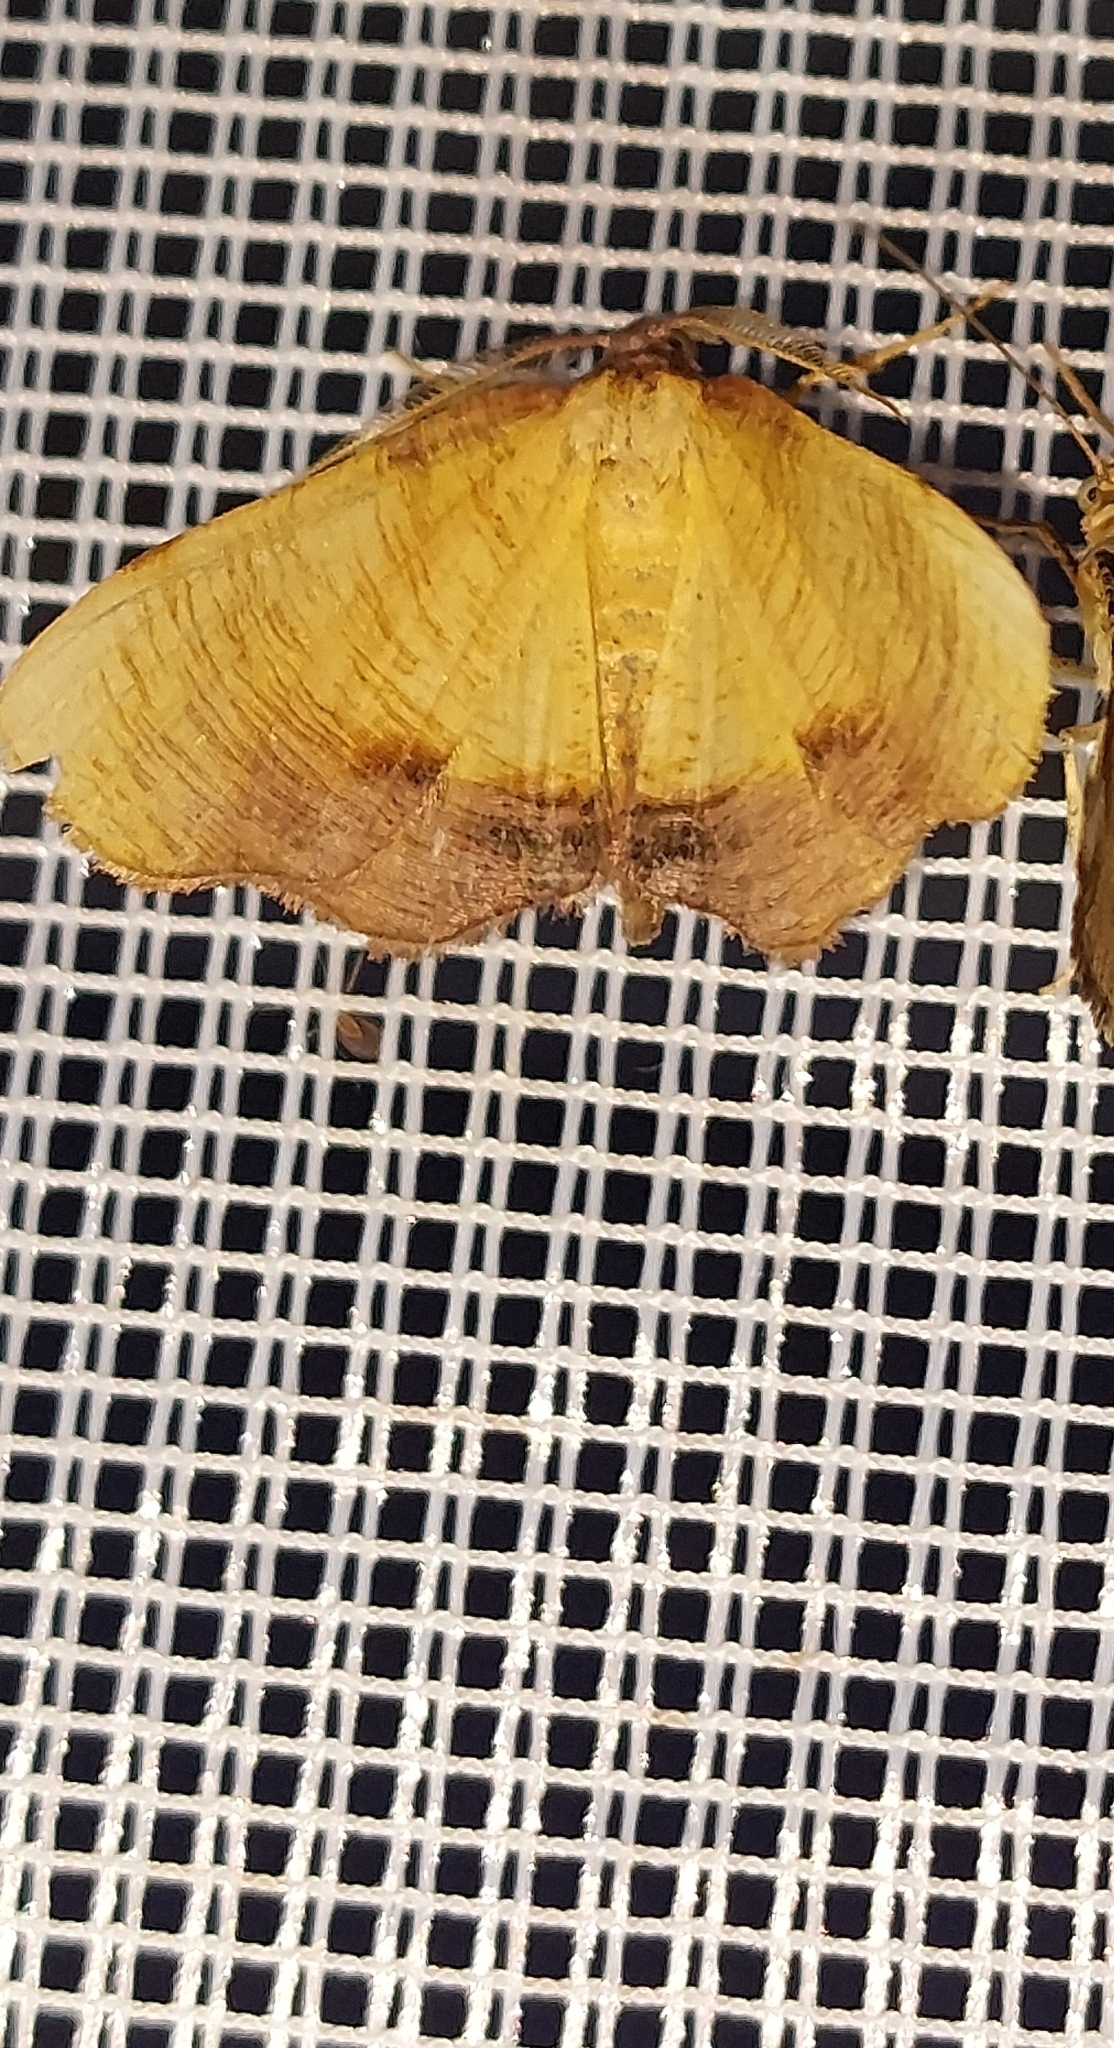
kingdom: Animalia
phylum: Arthropoda
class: Insecta
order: Lepidoptera
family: Geometridae
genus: Plagodis
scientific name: Plagodis dolabraria
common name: Scorched wing
